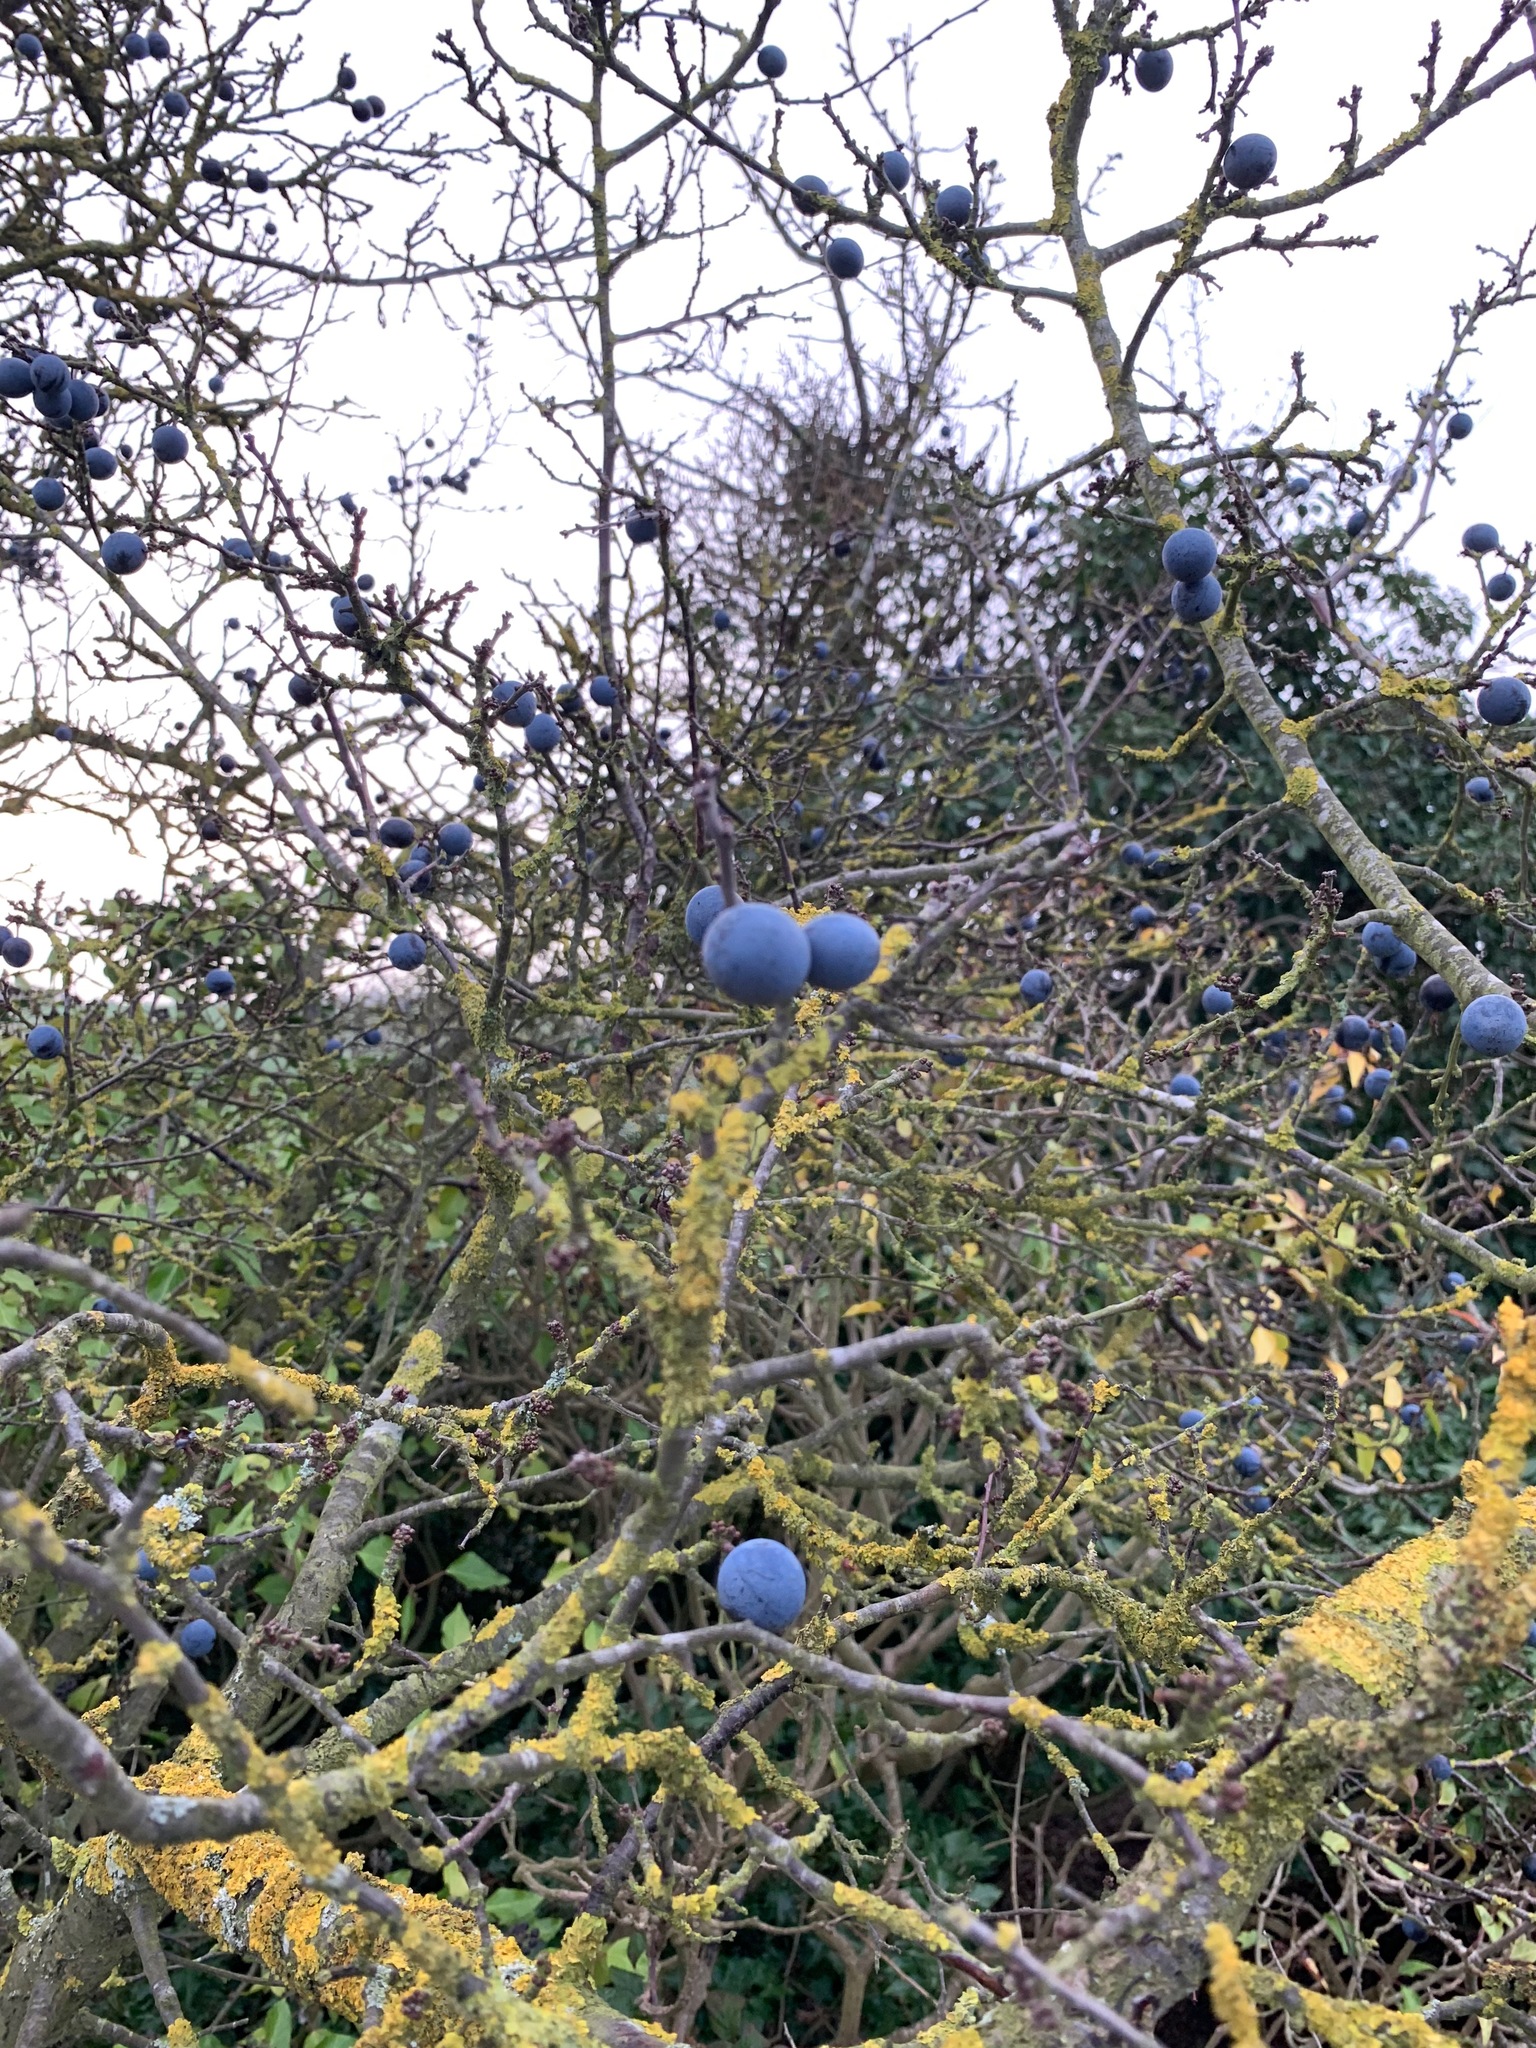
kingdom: Plantae
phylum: Tracheophyta
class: Magnoliopsida
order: Rosales
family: Rosaceae
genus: Prunus
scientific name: Prunus spinosa
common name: Blackthorn
